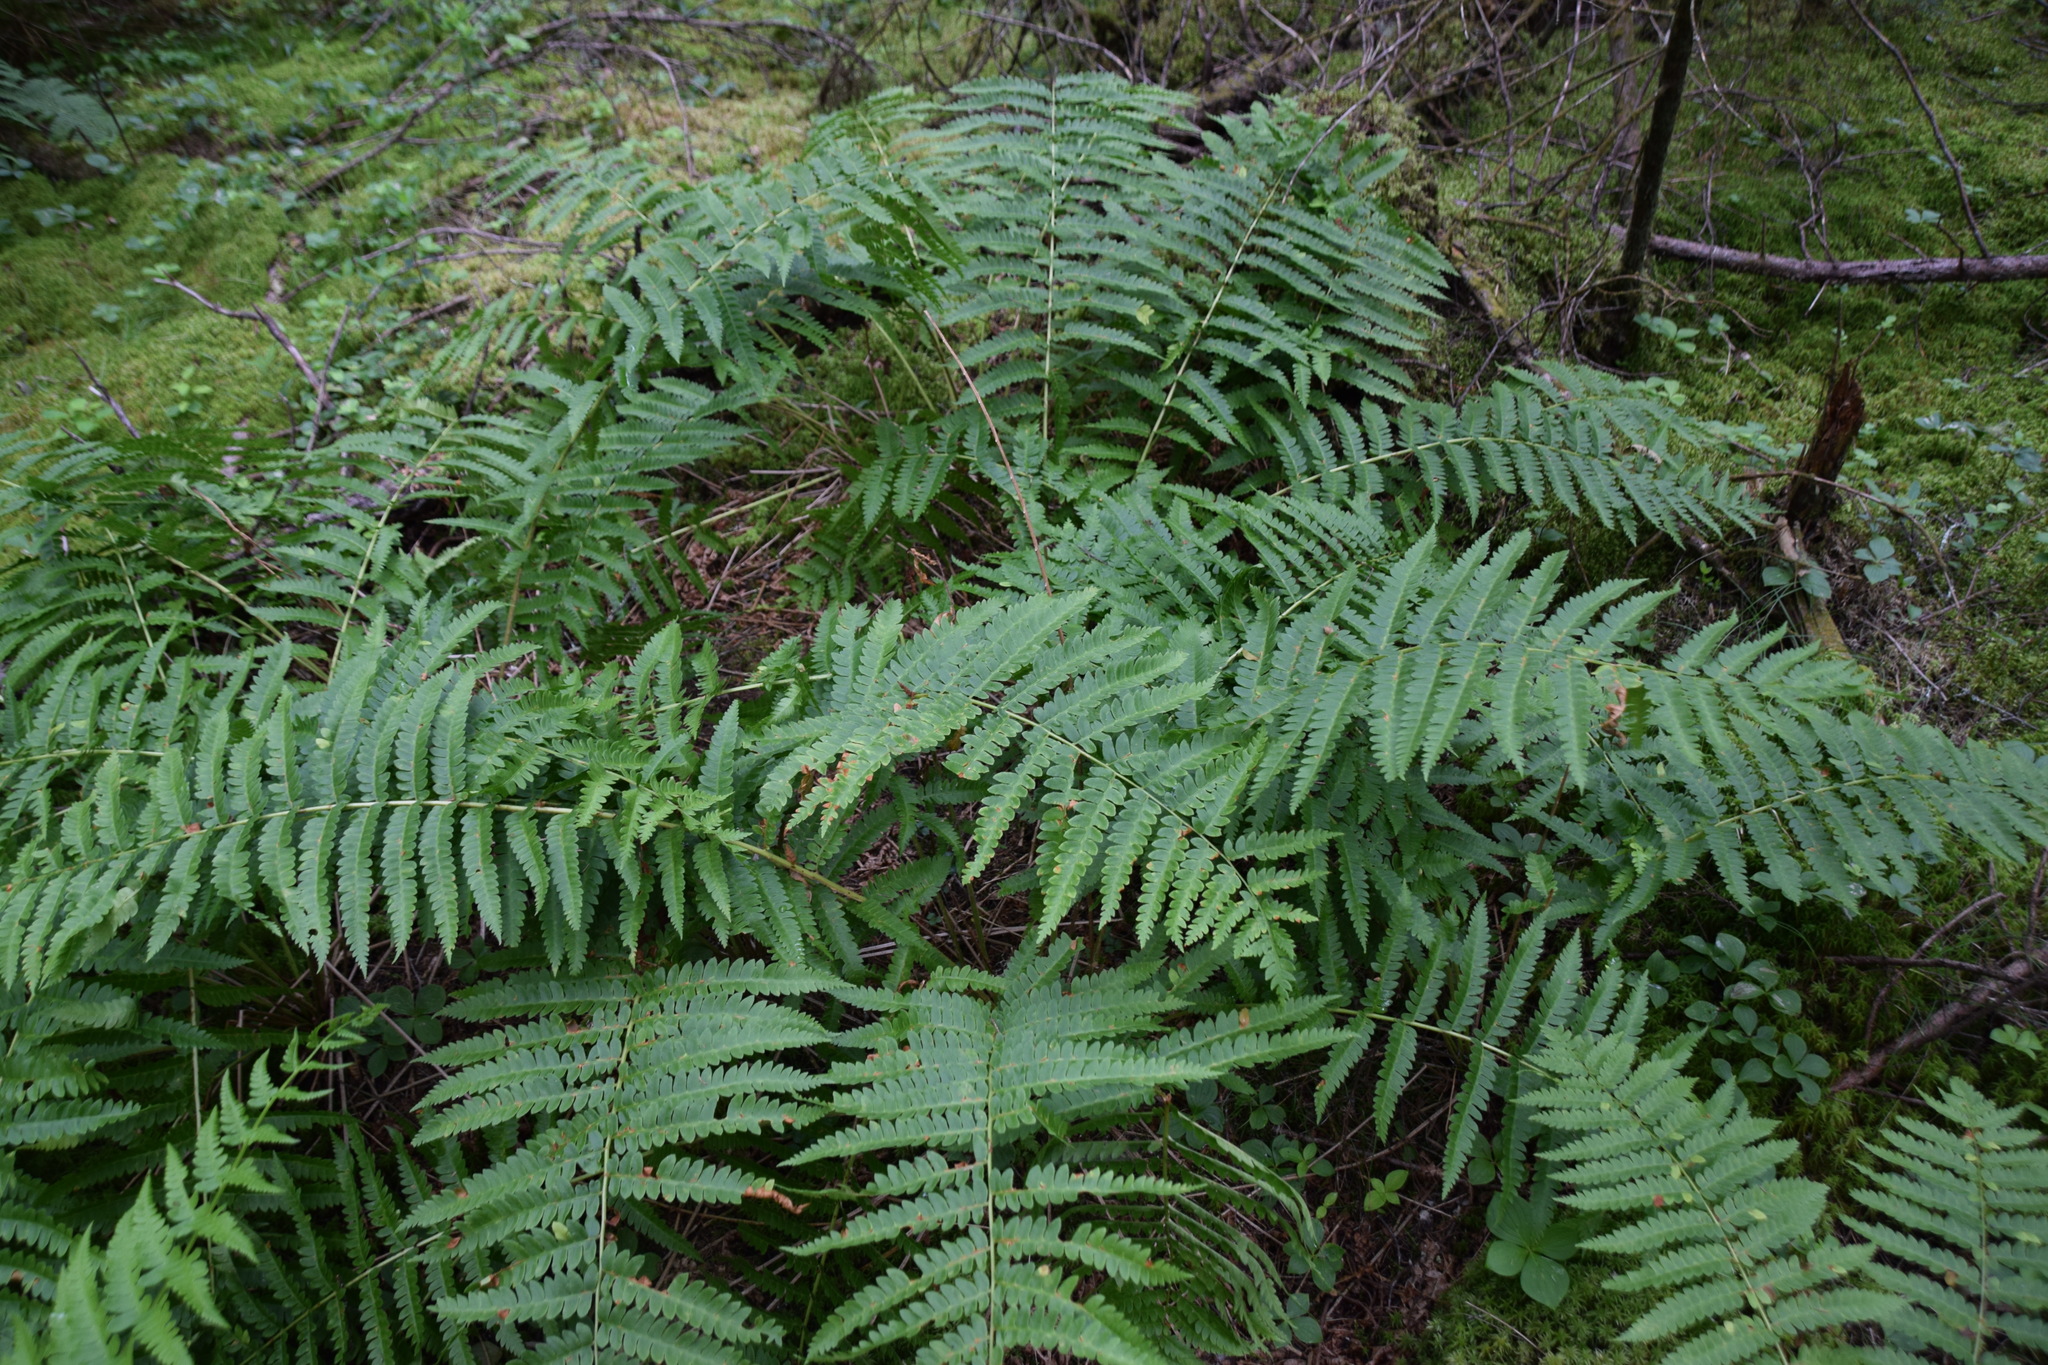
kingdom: Plantae
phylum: Tracheophyta
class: Polypodiopsida
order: Osmundales
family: Osmundaceae
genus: Osmundastrum
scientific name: Osmundastrum cinnamomeum
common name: Cinnamon fern
